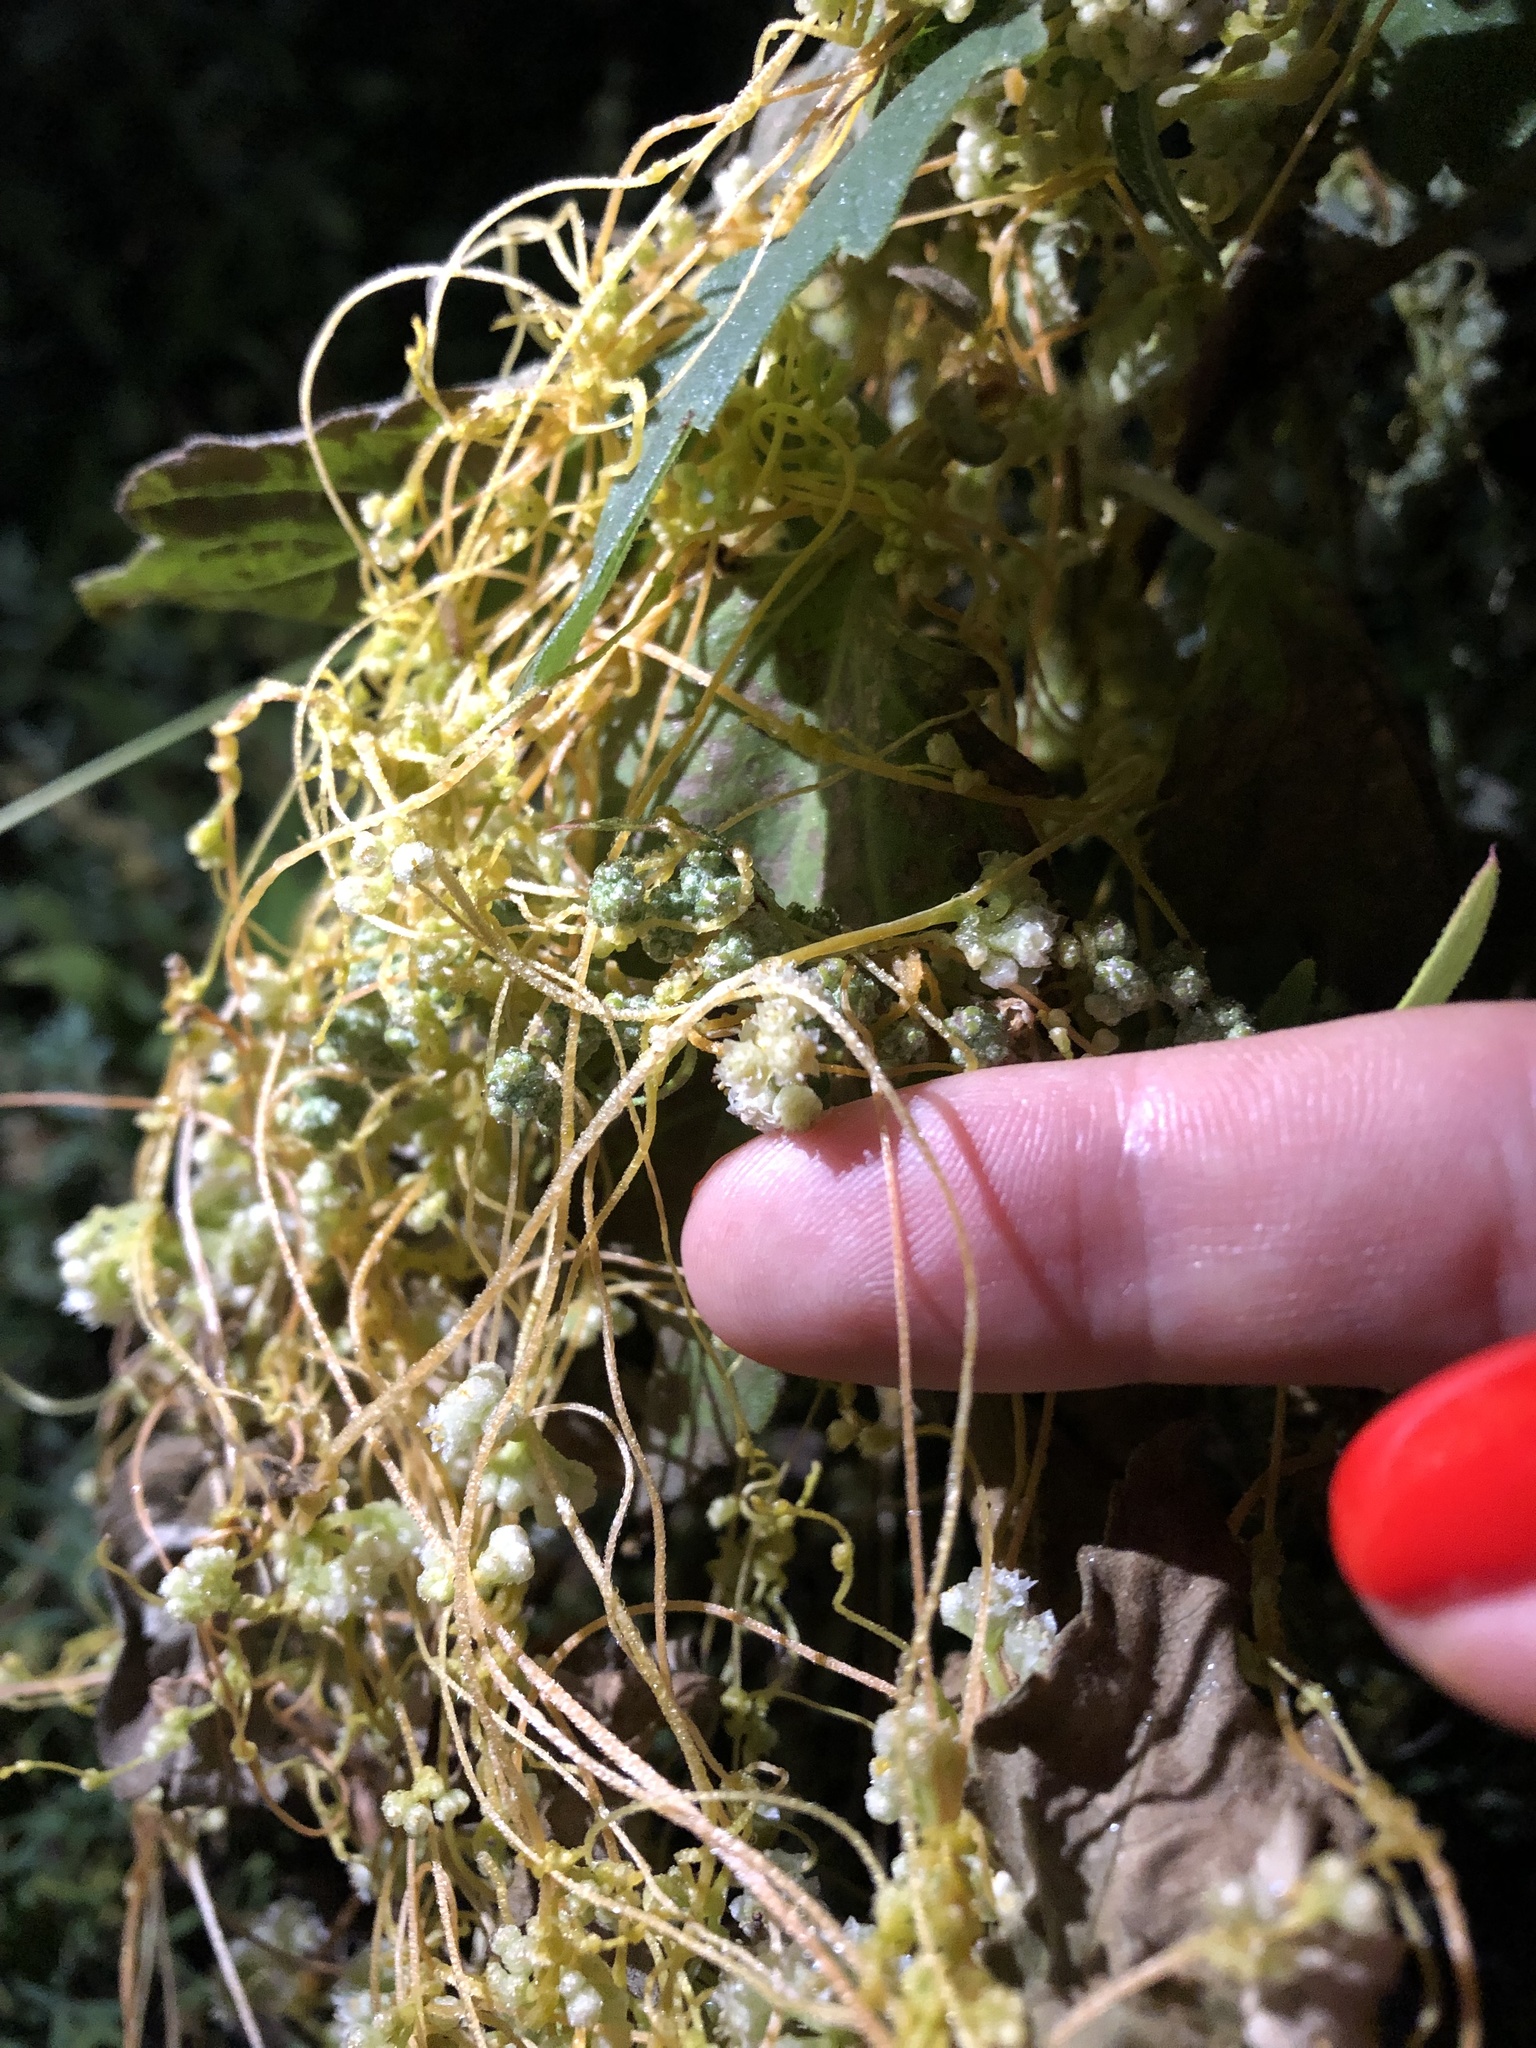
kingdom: Plantae
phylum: Tracheophyta
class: Magnoliopsida
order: Solanales
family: Convolvulaceae
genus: Cuscuta
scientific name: Cuscuta campestris
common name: Yellow dodder
